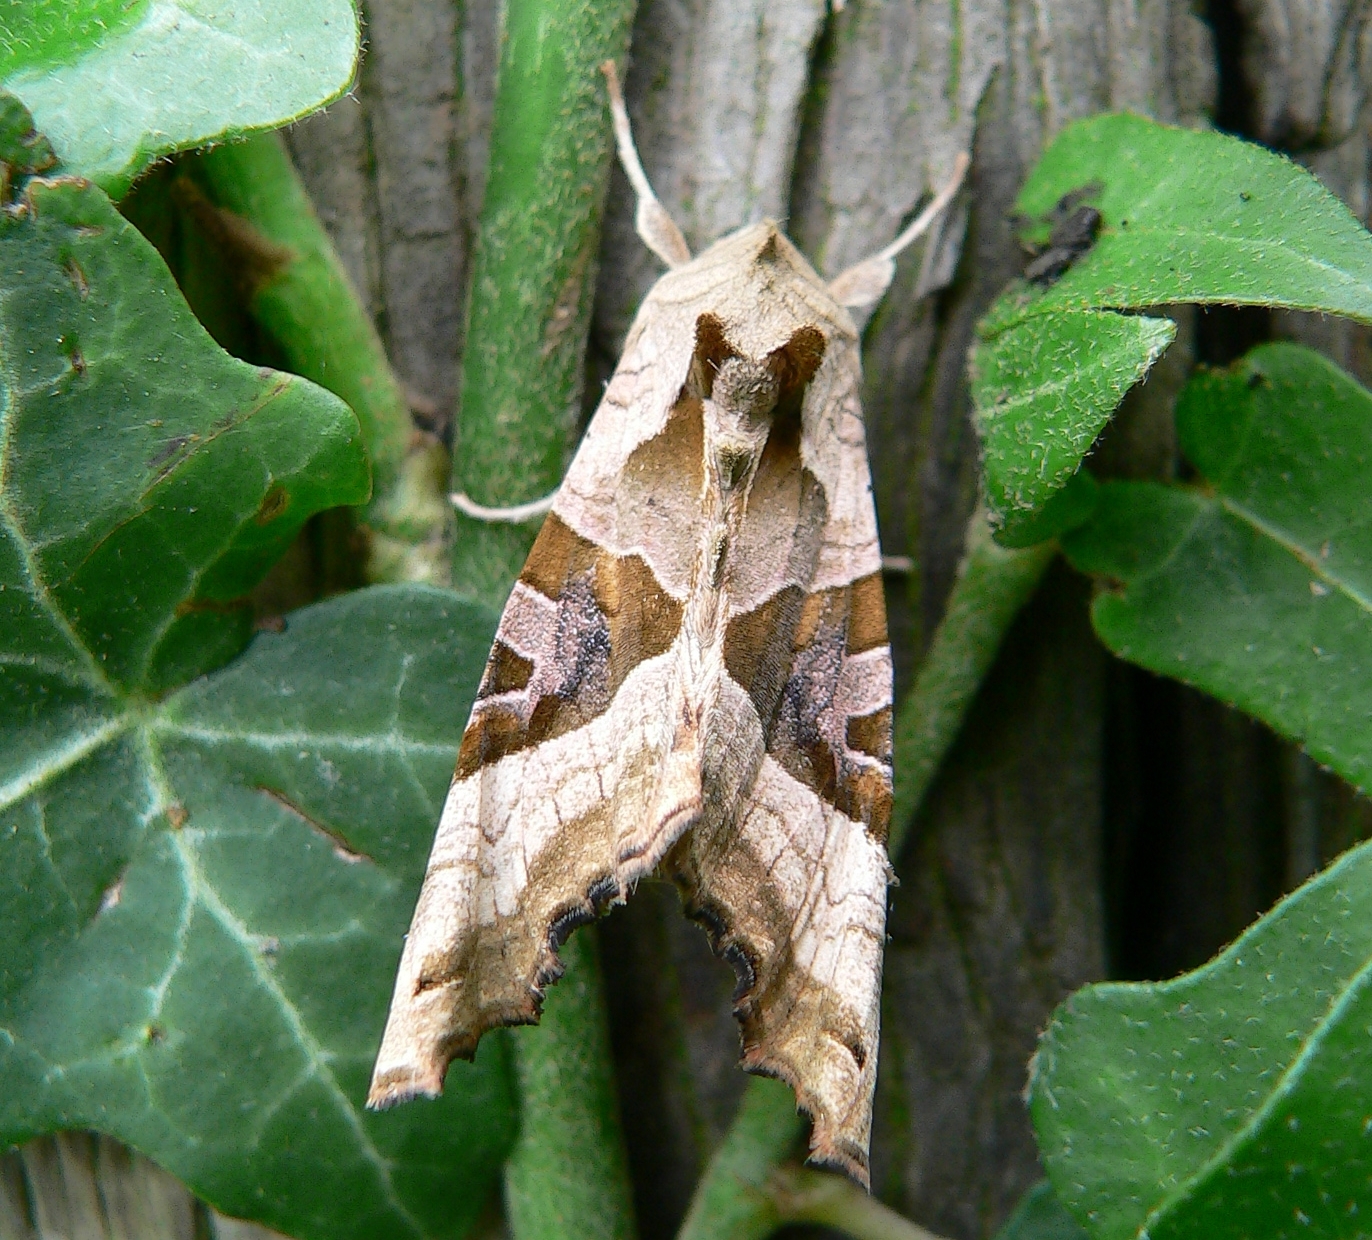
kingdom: Animalia
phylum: Arthropoda
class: Insecta
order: Lepidoptera
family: Noctuidae
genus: Phlogophora
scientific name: Phlogophora meticulosa
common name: Angle shades
